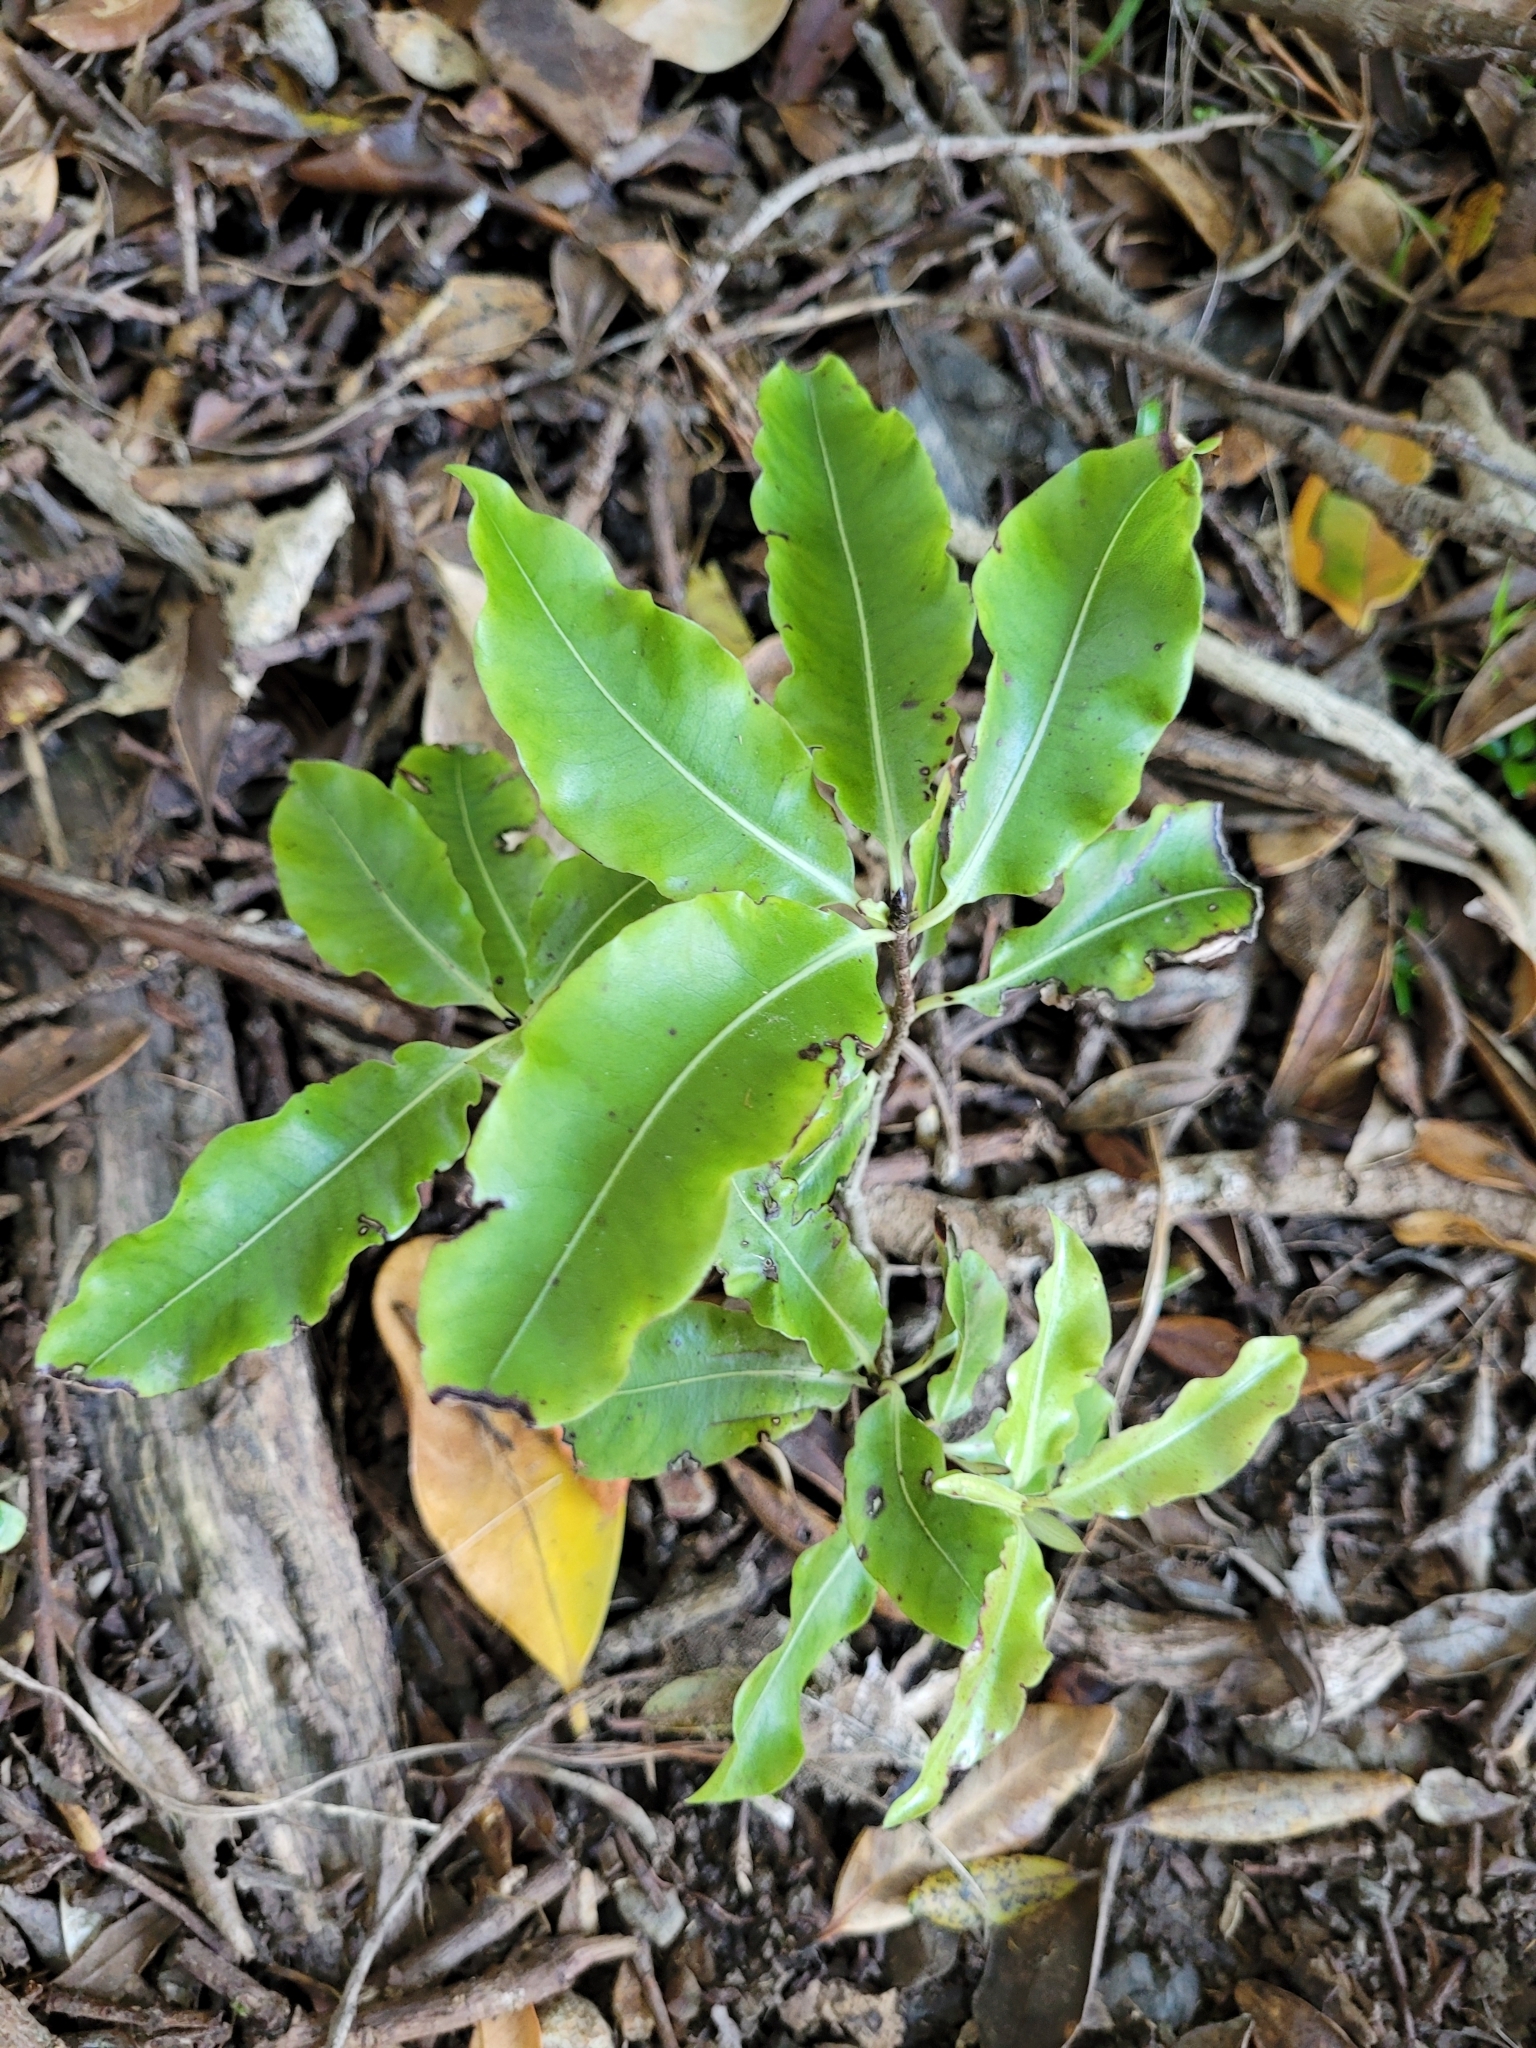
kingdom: Plantae
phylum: Tracheophyta
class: Magnoliopsida
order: Apiales
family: Pittosporaceae
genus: Pittosporum
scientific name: Pittosporum eugenioides
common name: Lemonwood
